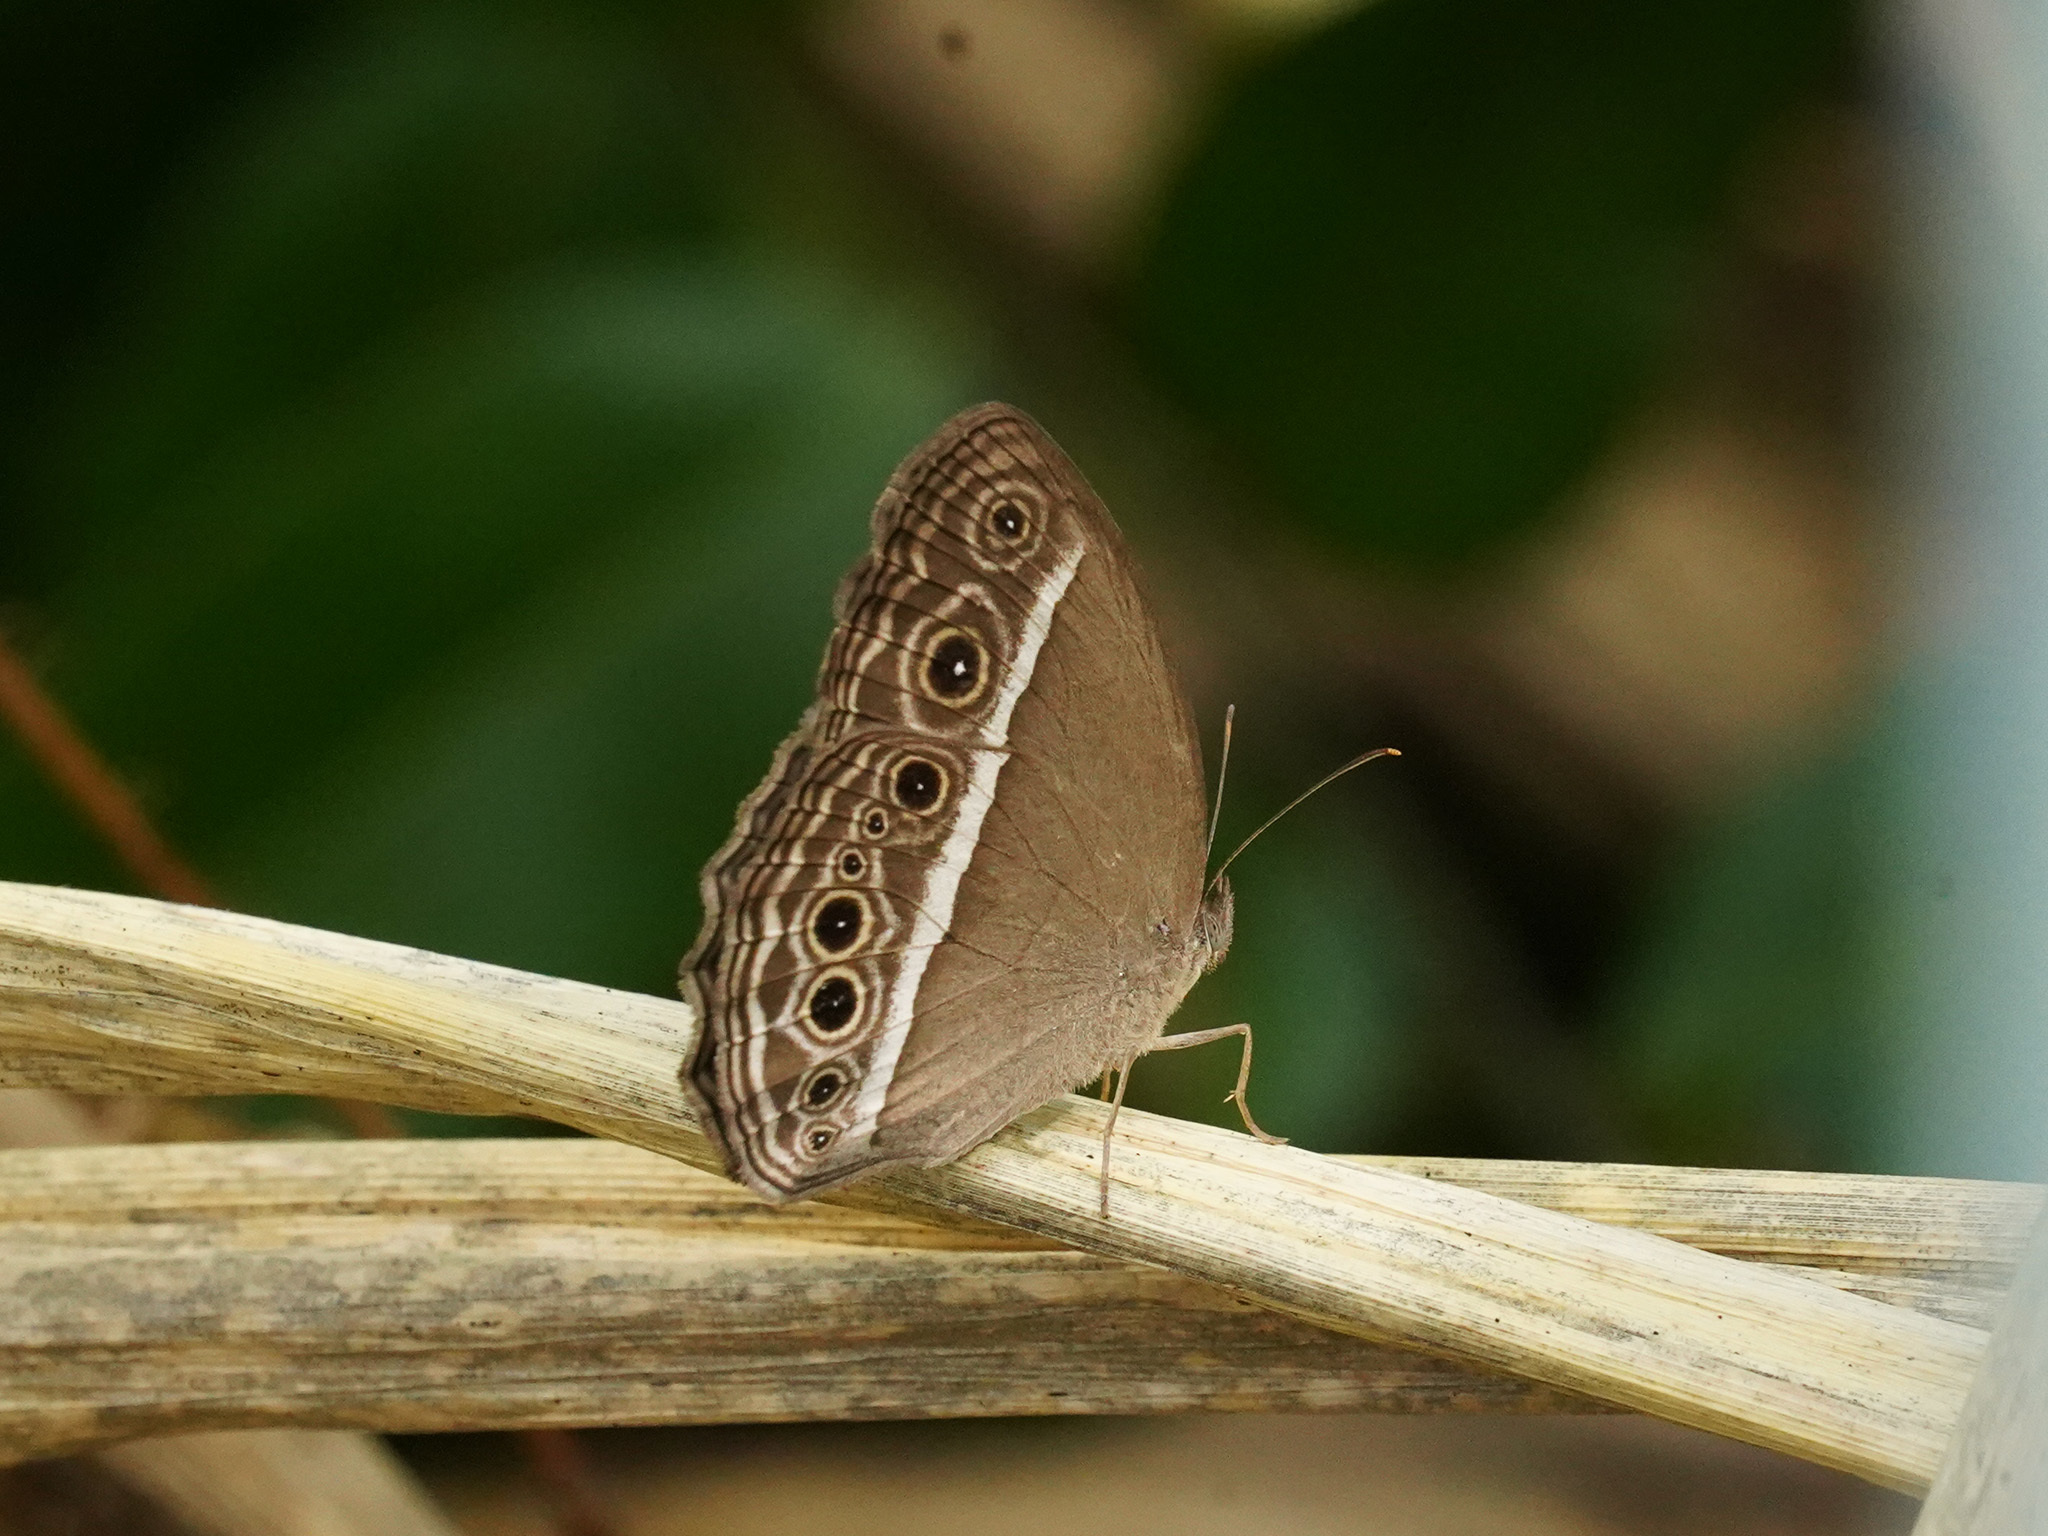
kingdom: Animalia
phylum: Arthropoda
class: Insecta
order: Lepidoptera
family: Nymphalidae
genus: Mycalesis
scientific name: Mycalesis mineus
